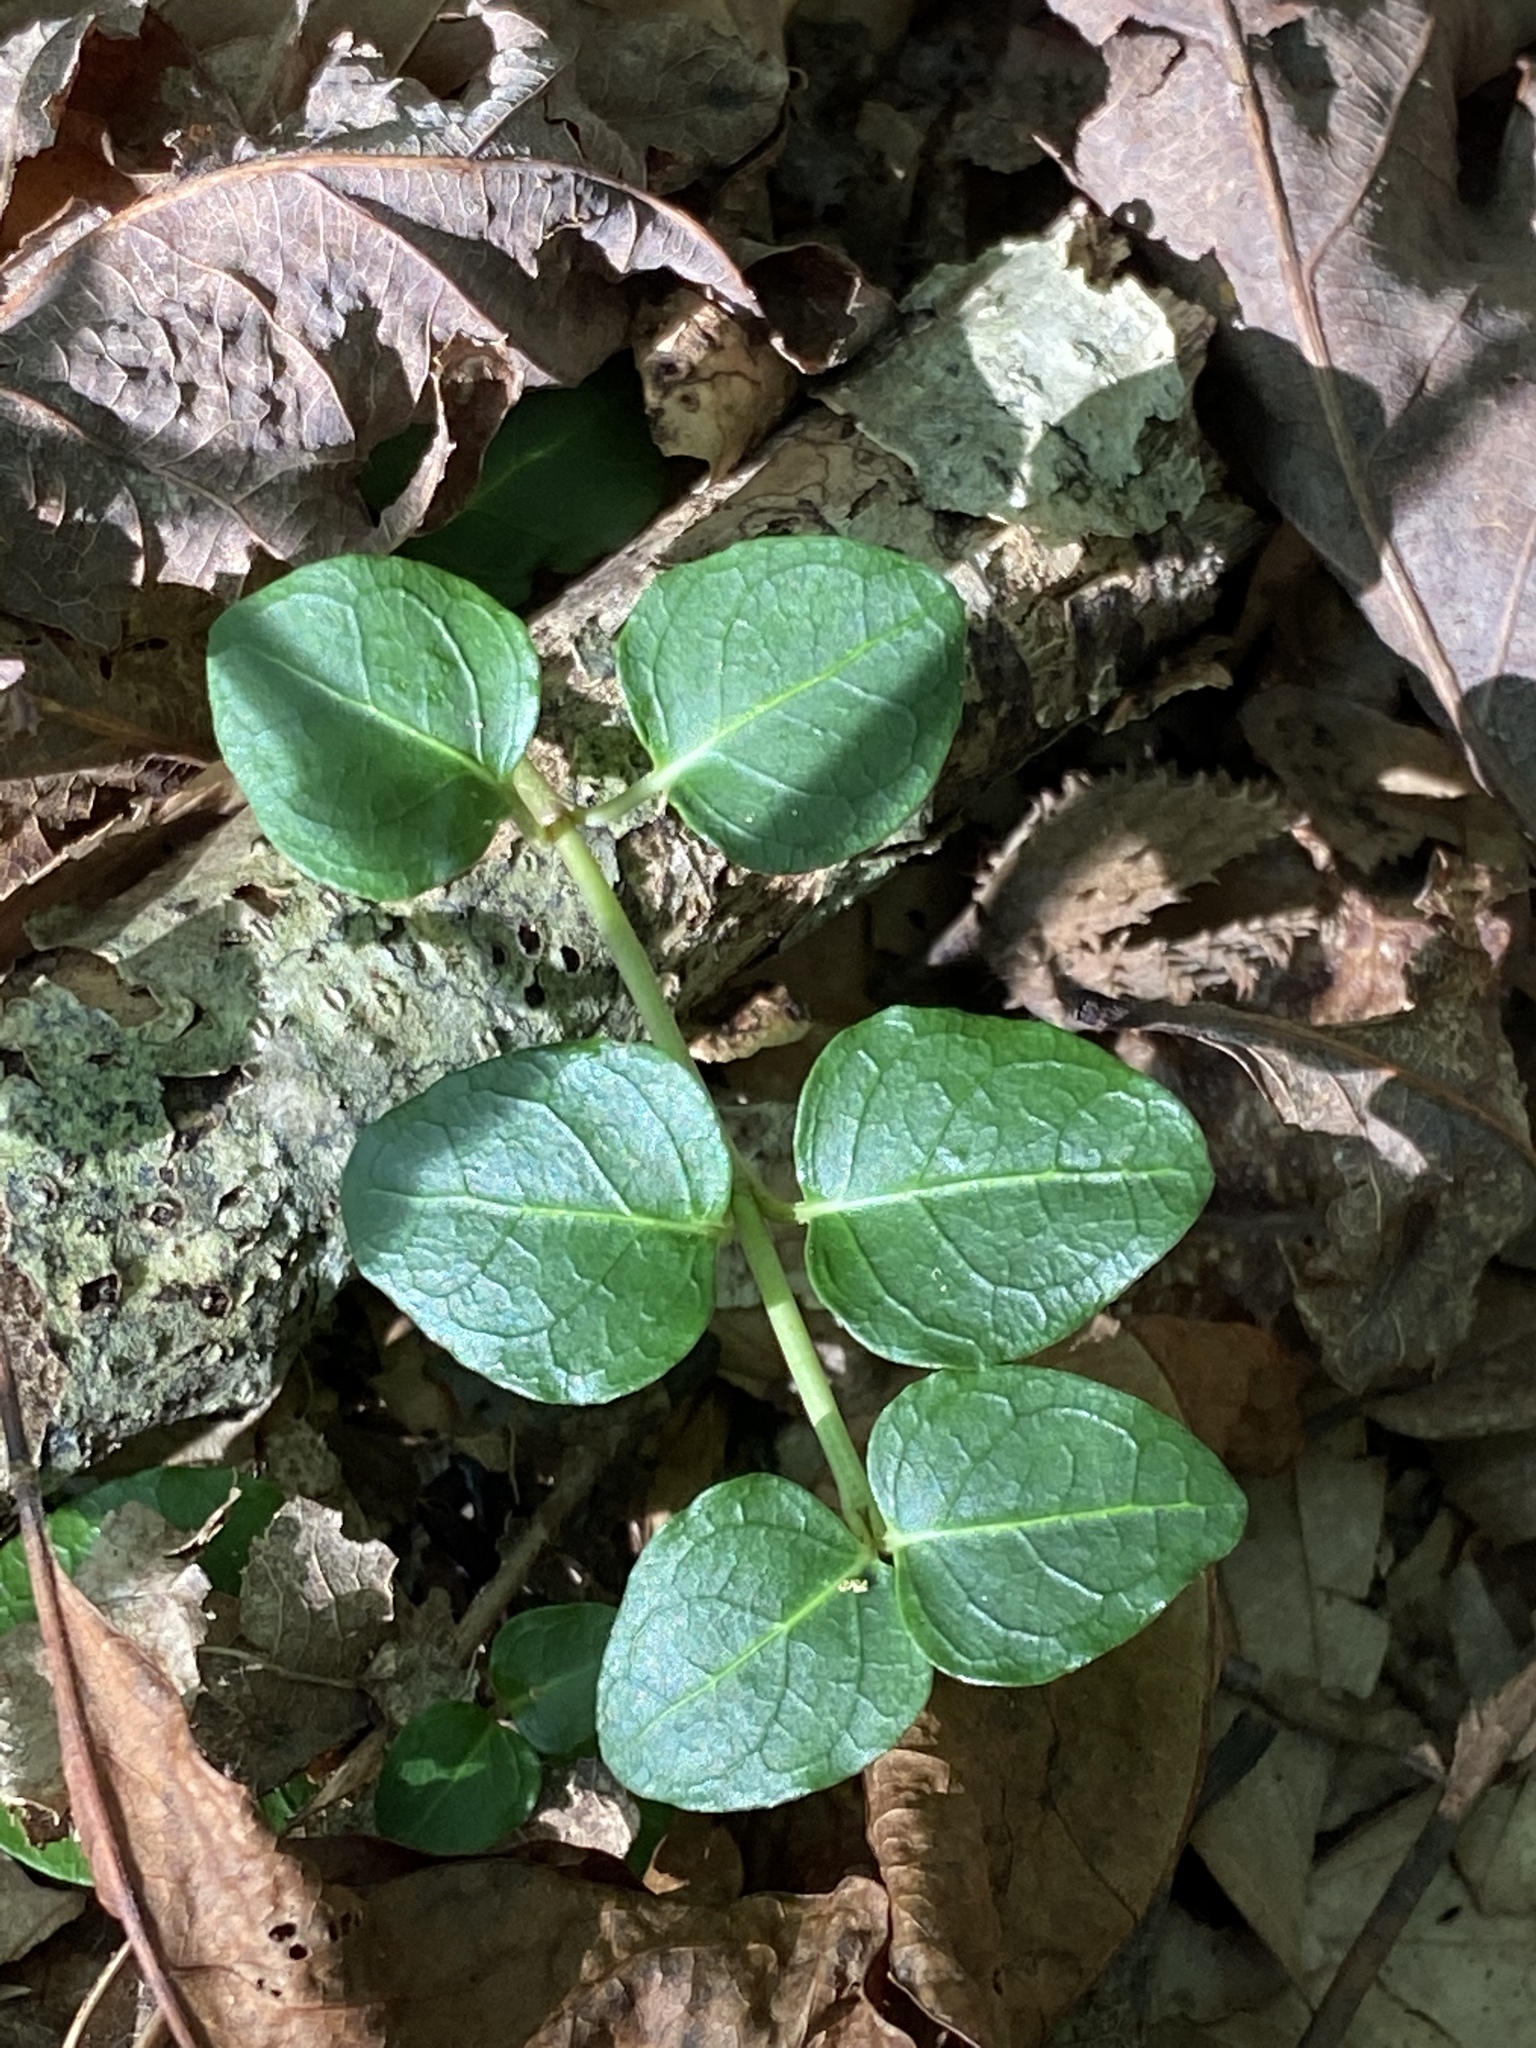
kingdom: Plantae
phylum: Tracheophyta
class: Magnoliopsida
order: Gentianales
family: Rubiaceae
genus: Mitchella
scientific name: Mitchella repens
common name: Partridge-berry
